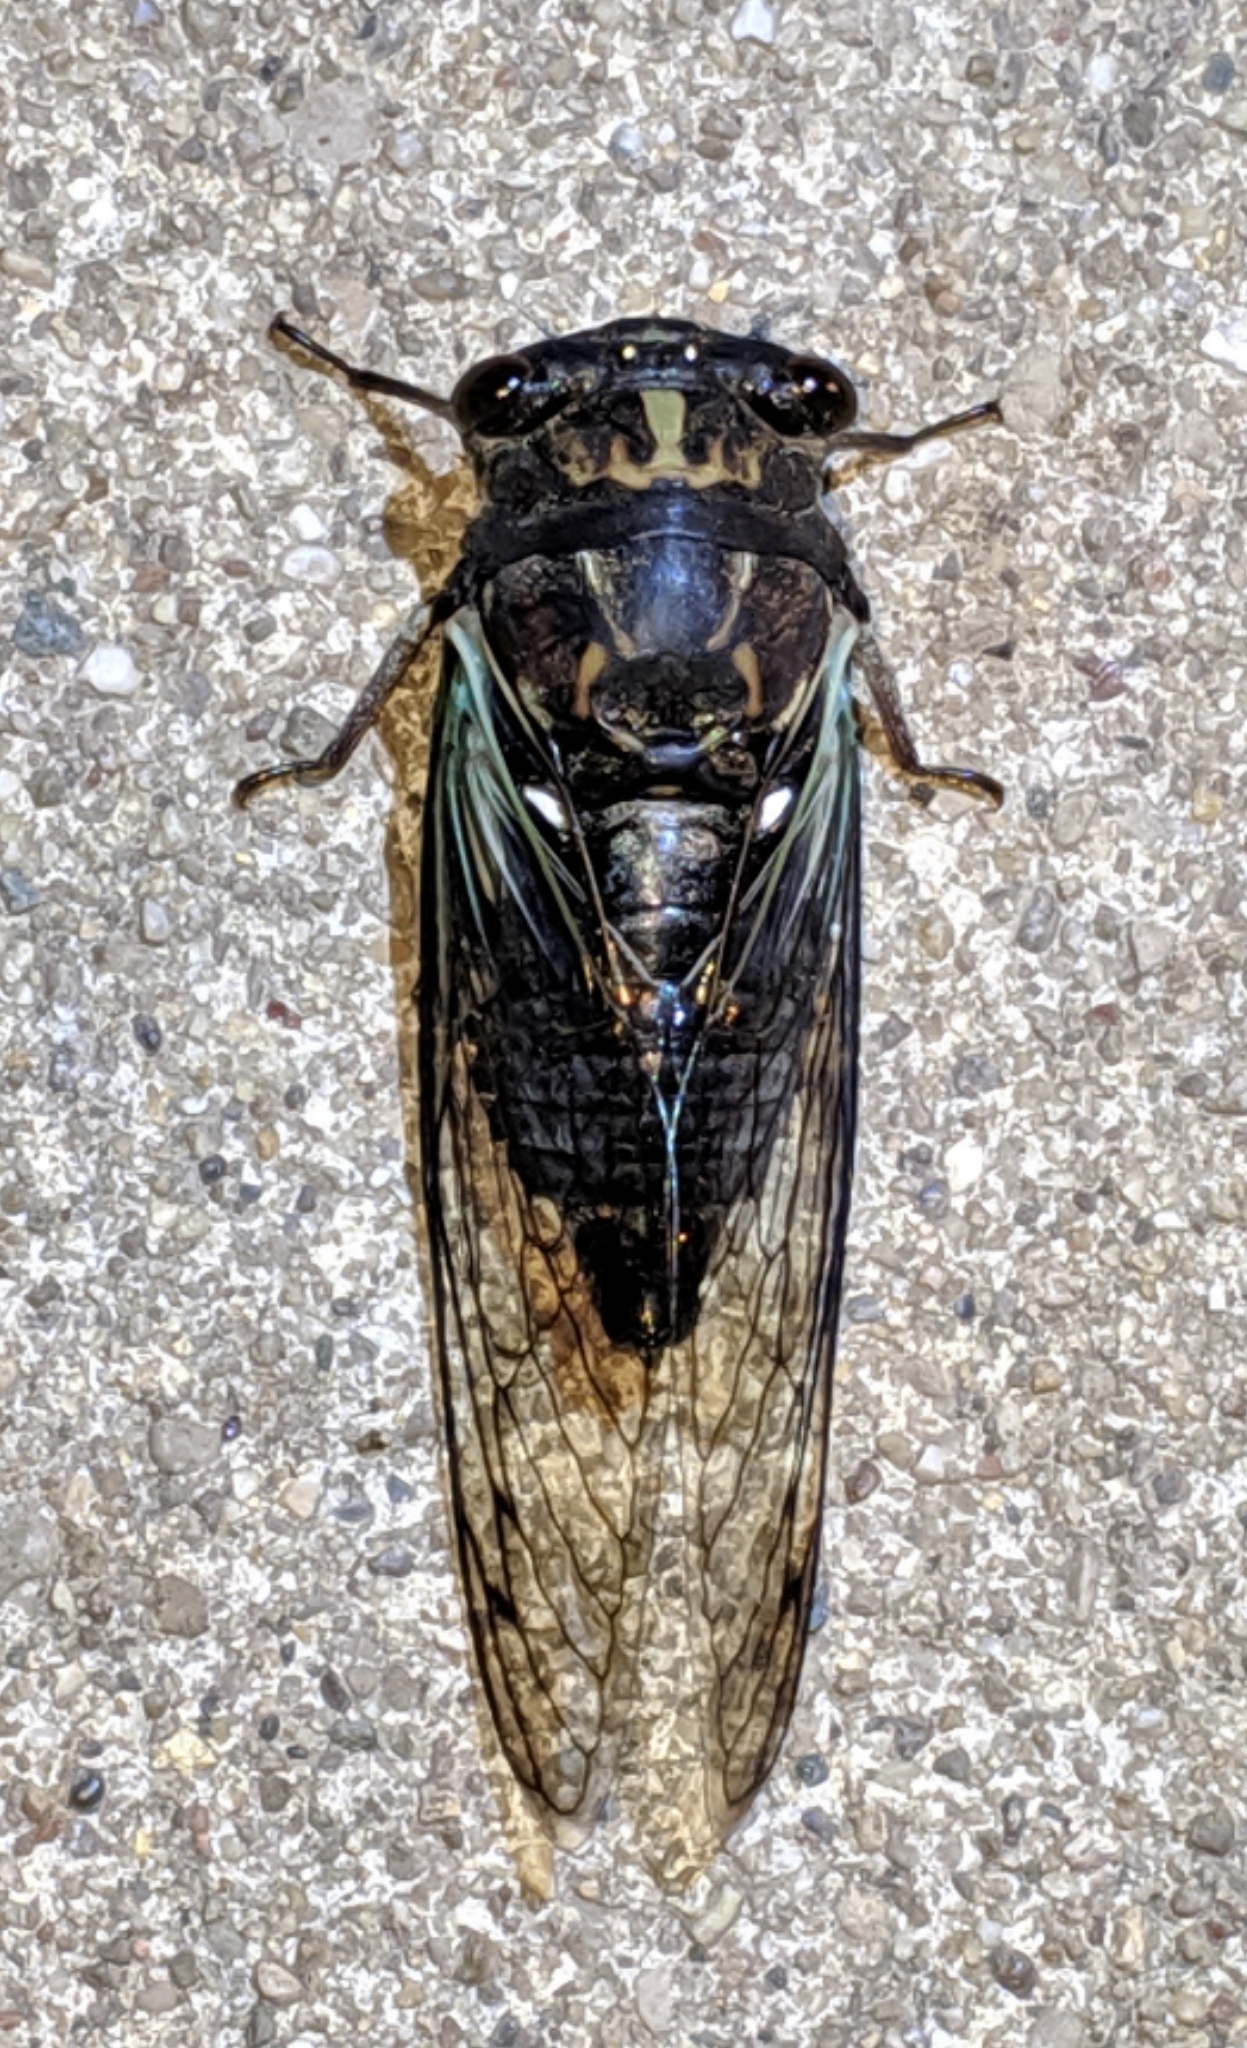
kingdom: Animalia
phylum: Arthropoda
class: Insecta
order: Hemiptera
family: Cicadidae
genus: Neotibicen
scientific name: Neotibicen lyricen
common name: Lyric cicada
